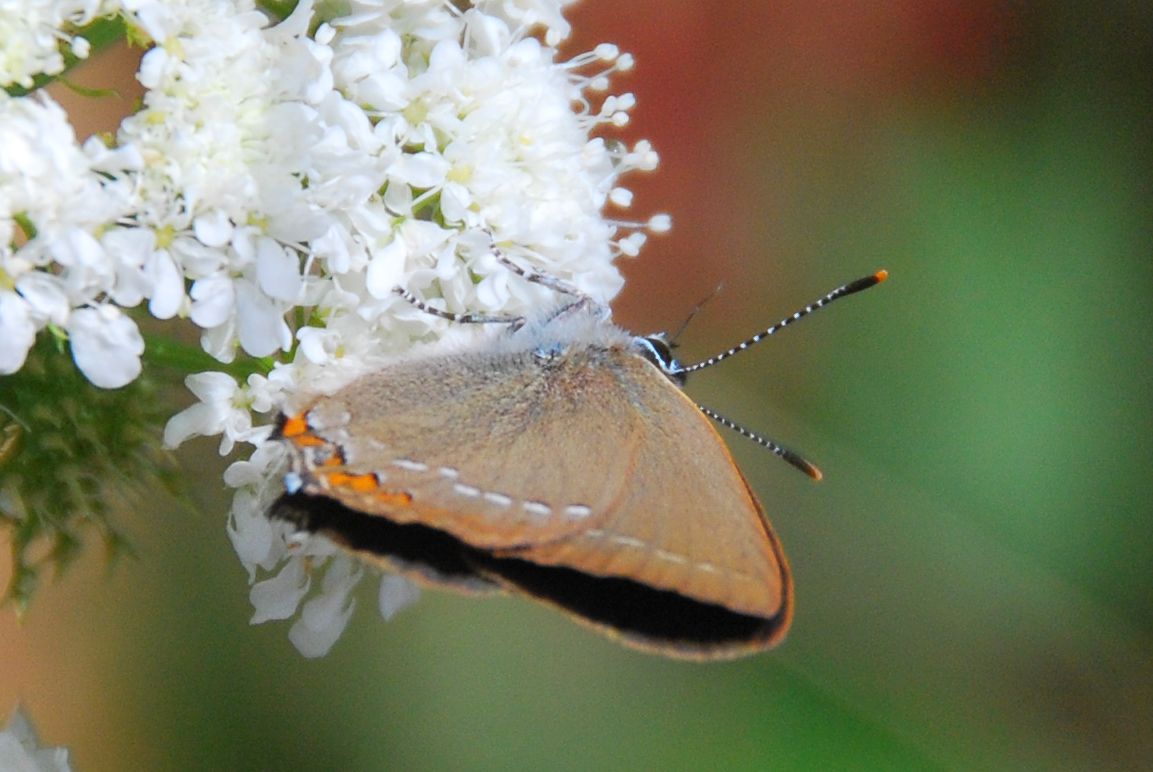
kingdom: Animalia
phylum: Arthropoda
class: Insecta
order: Lepidoptera
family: Lycaenidae
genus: Strymon
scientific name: Strymon acaciae
